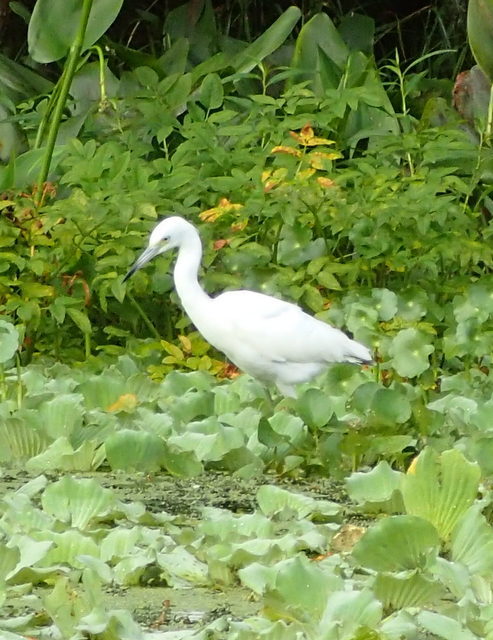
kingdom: Animalia
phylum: Chordata
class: Aves
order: Pelecaniformes
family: Ardeidae
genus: Egretta
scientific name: Egretta caerulea
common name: Little blue heron
